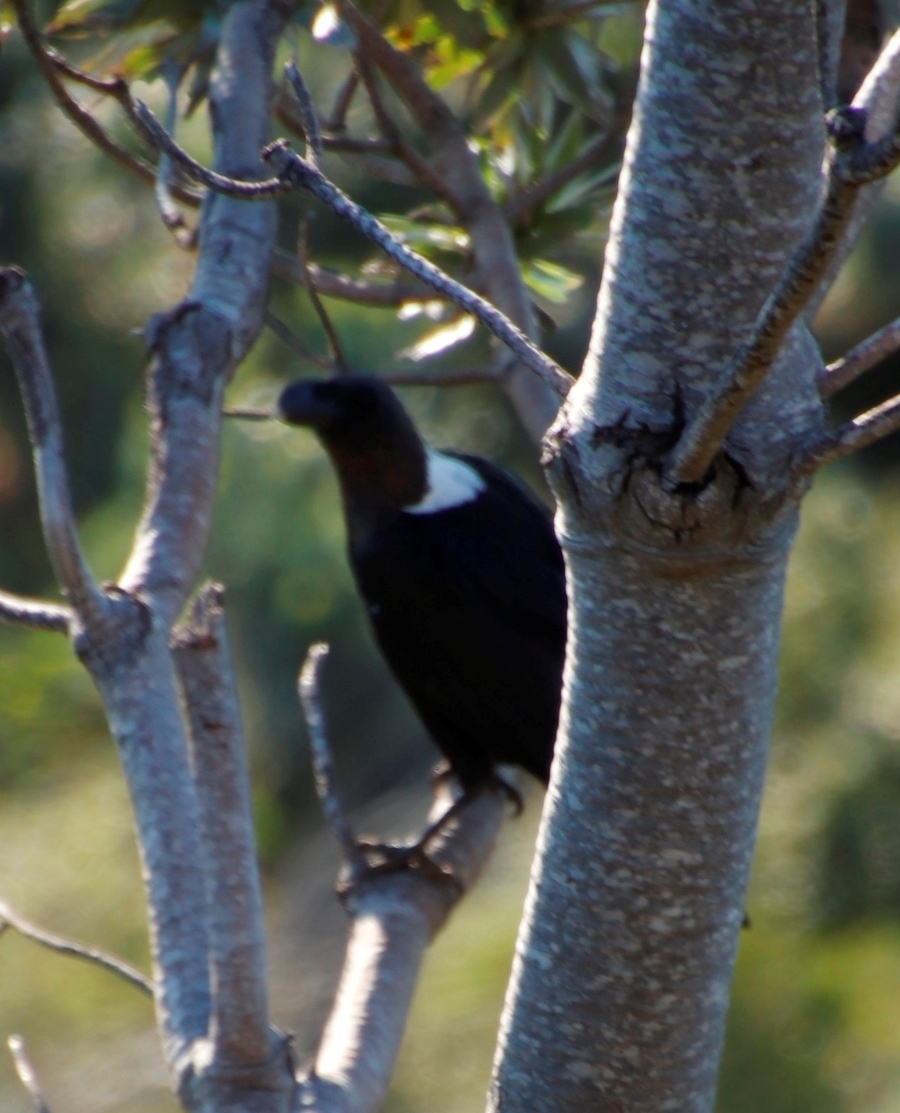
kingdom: Animalia
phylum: Chordata
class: Aves
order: Passeriformes
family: Corvidae
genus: Corvus
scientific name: Corvus albicollis
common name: White-necked raven
